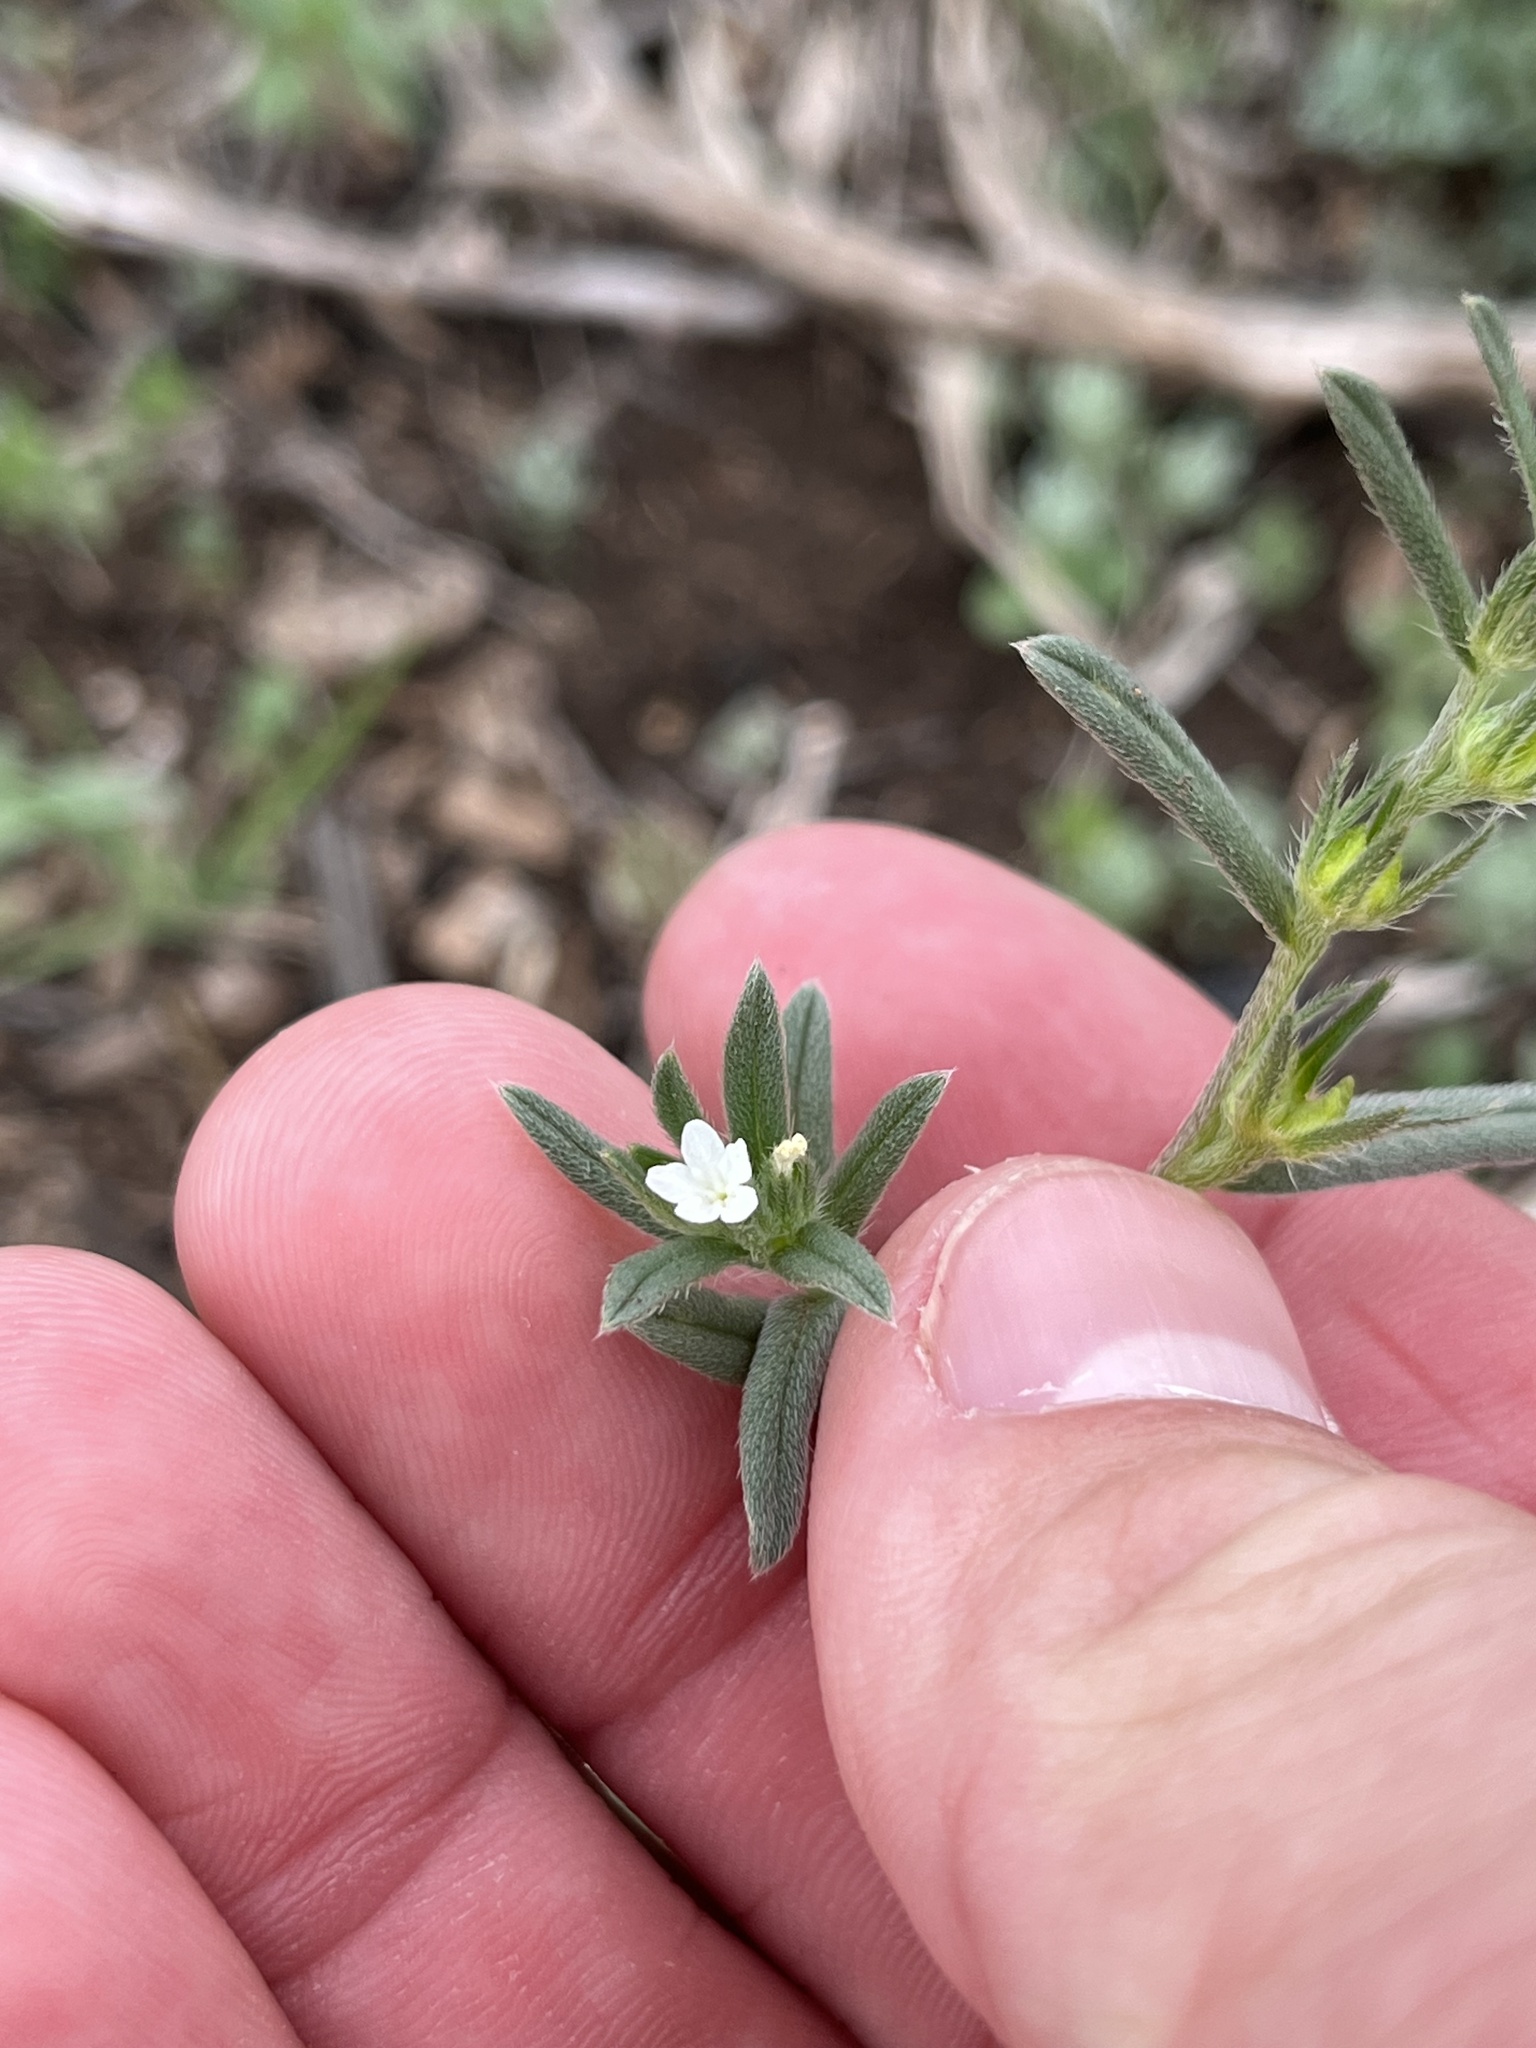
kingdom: Plantae
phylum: Tracheophyta
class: Magnoliopsida
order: Boraginales
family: Boraginaceae
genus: Buglossoides
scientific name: Buglossoides arvensis
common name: Corn gromwell
